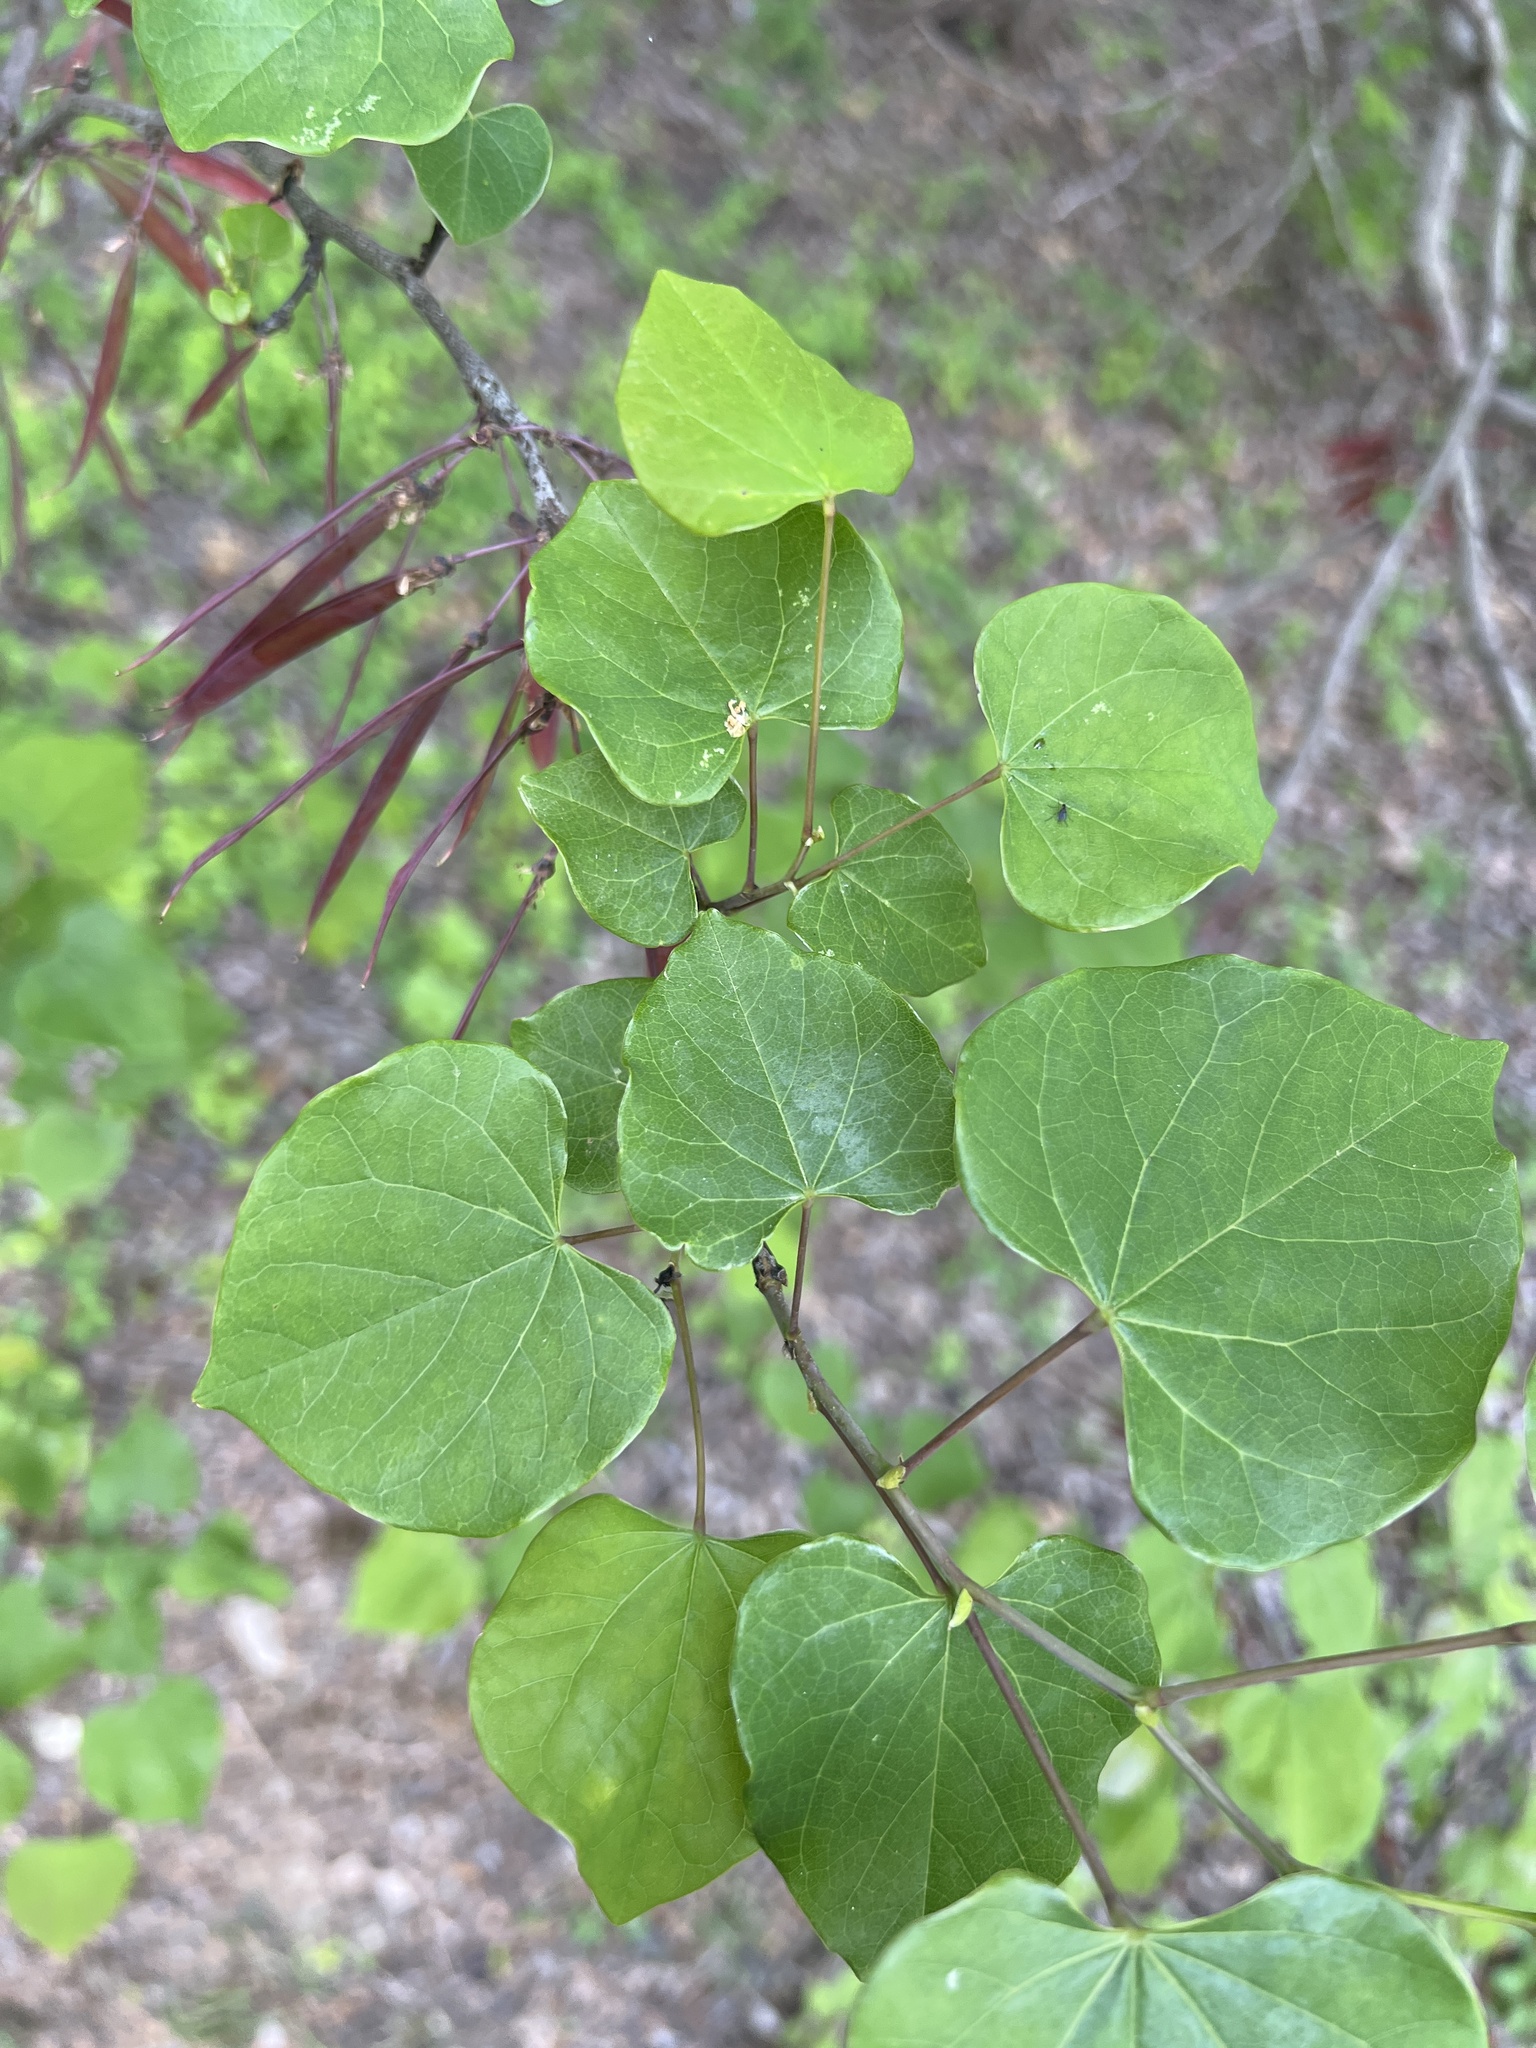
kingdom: Plantae
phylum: Tracheophyta
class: Magnoliopsida
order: Fabales
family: Fabaceae
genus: Cercis
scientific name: Cercis canadensis
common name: Eastern redbud
